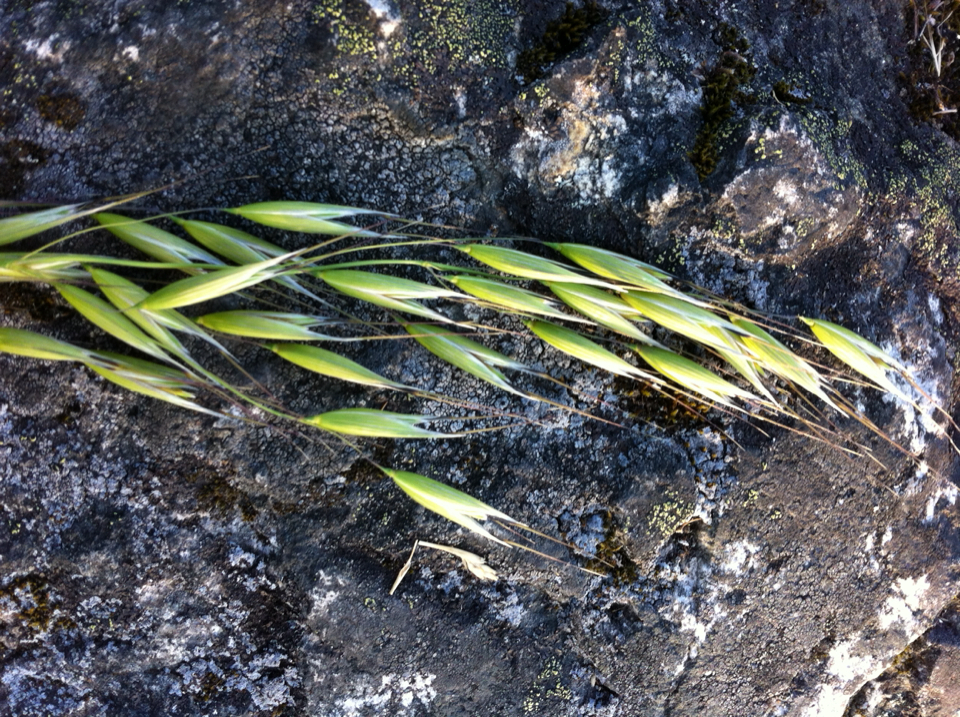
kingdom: Plantae
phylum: Tracheophyta
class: Liliopsida
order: Poales
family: Poaceae
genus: Avena
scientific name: Avena fatua
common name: Wild oat
